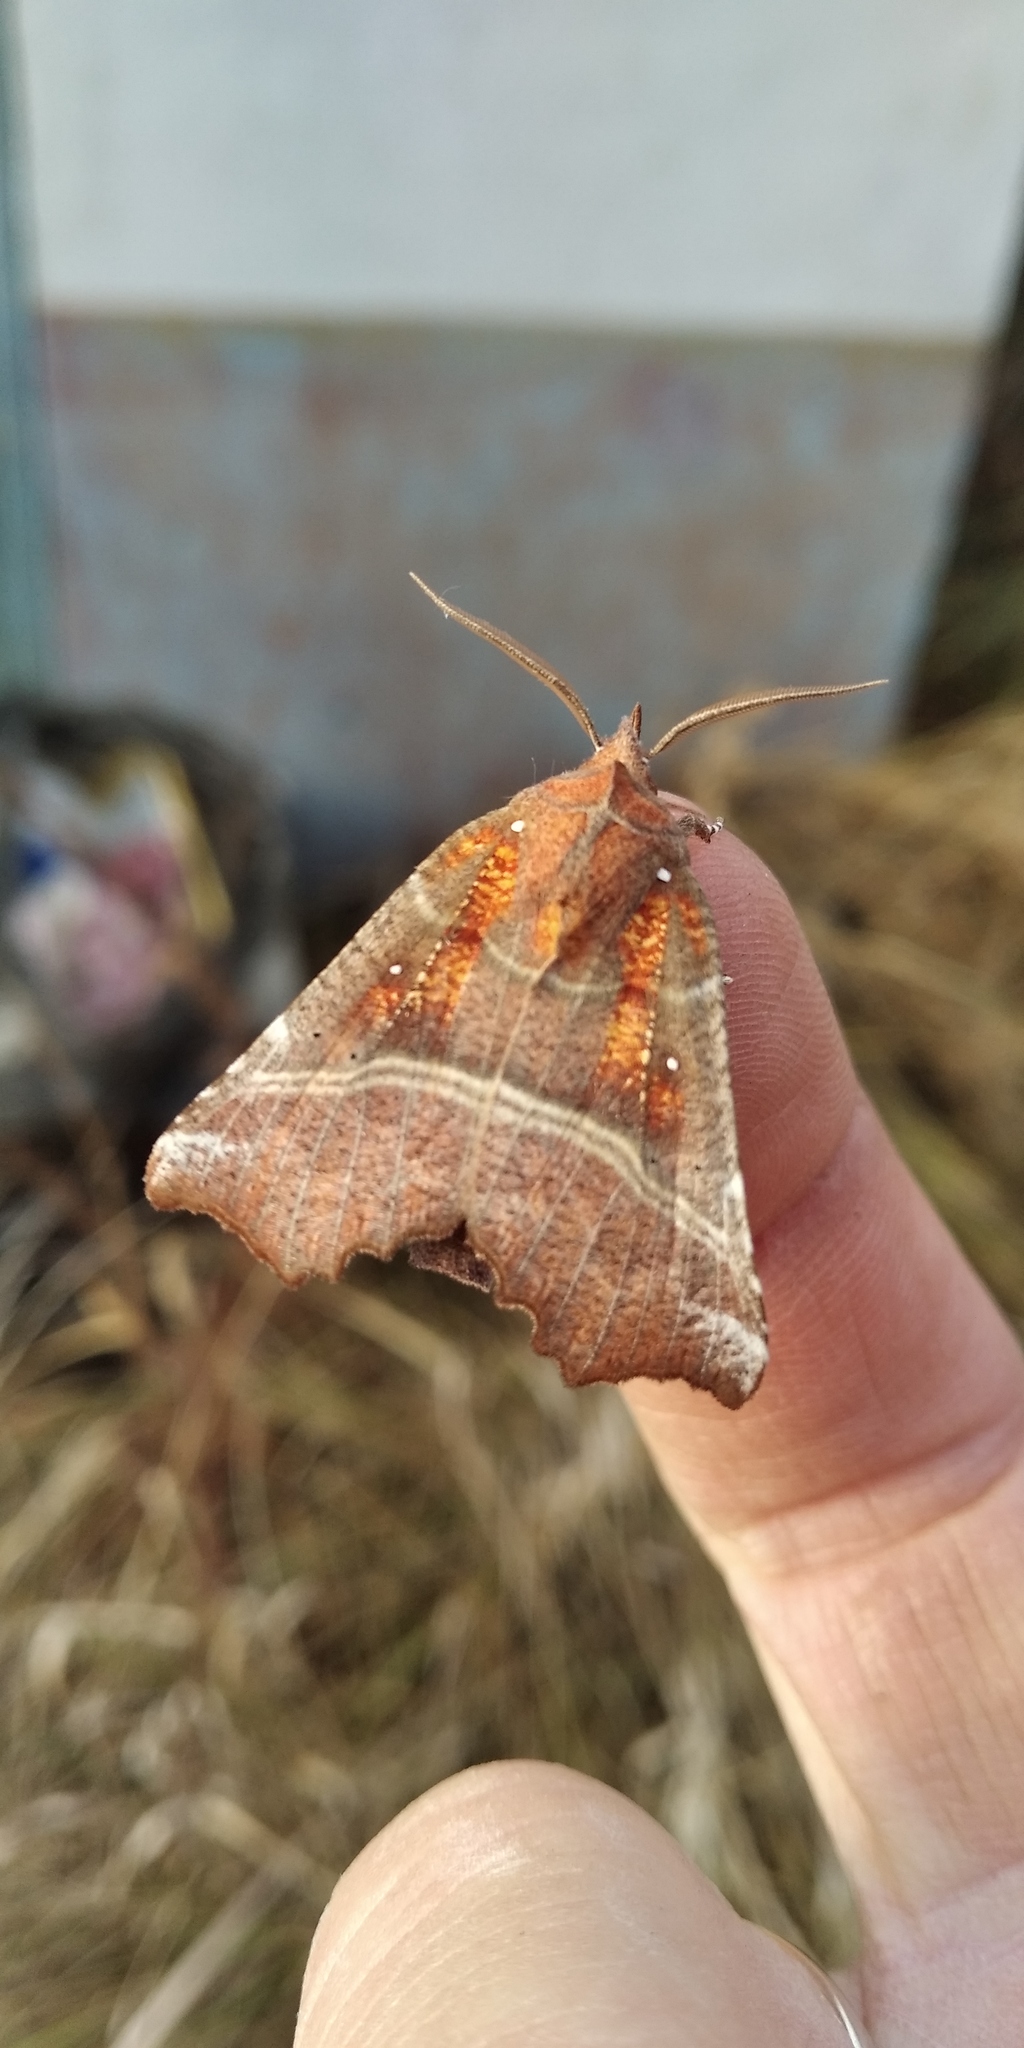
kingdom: Animalia
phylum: Arthropoda
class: Insecta
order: Lepidoptera
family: Erebidae
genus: Scoliopteryx
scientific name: Scoliopteryx libatrix
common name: Herald
